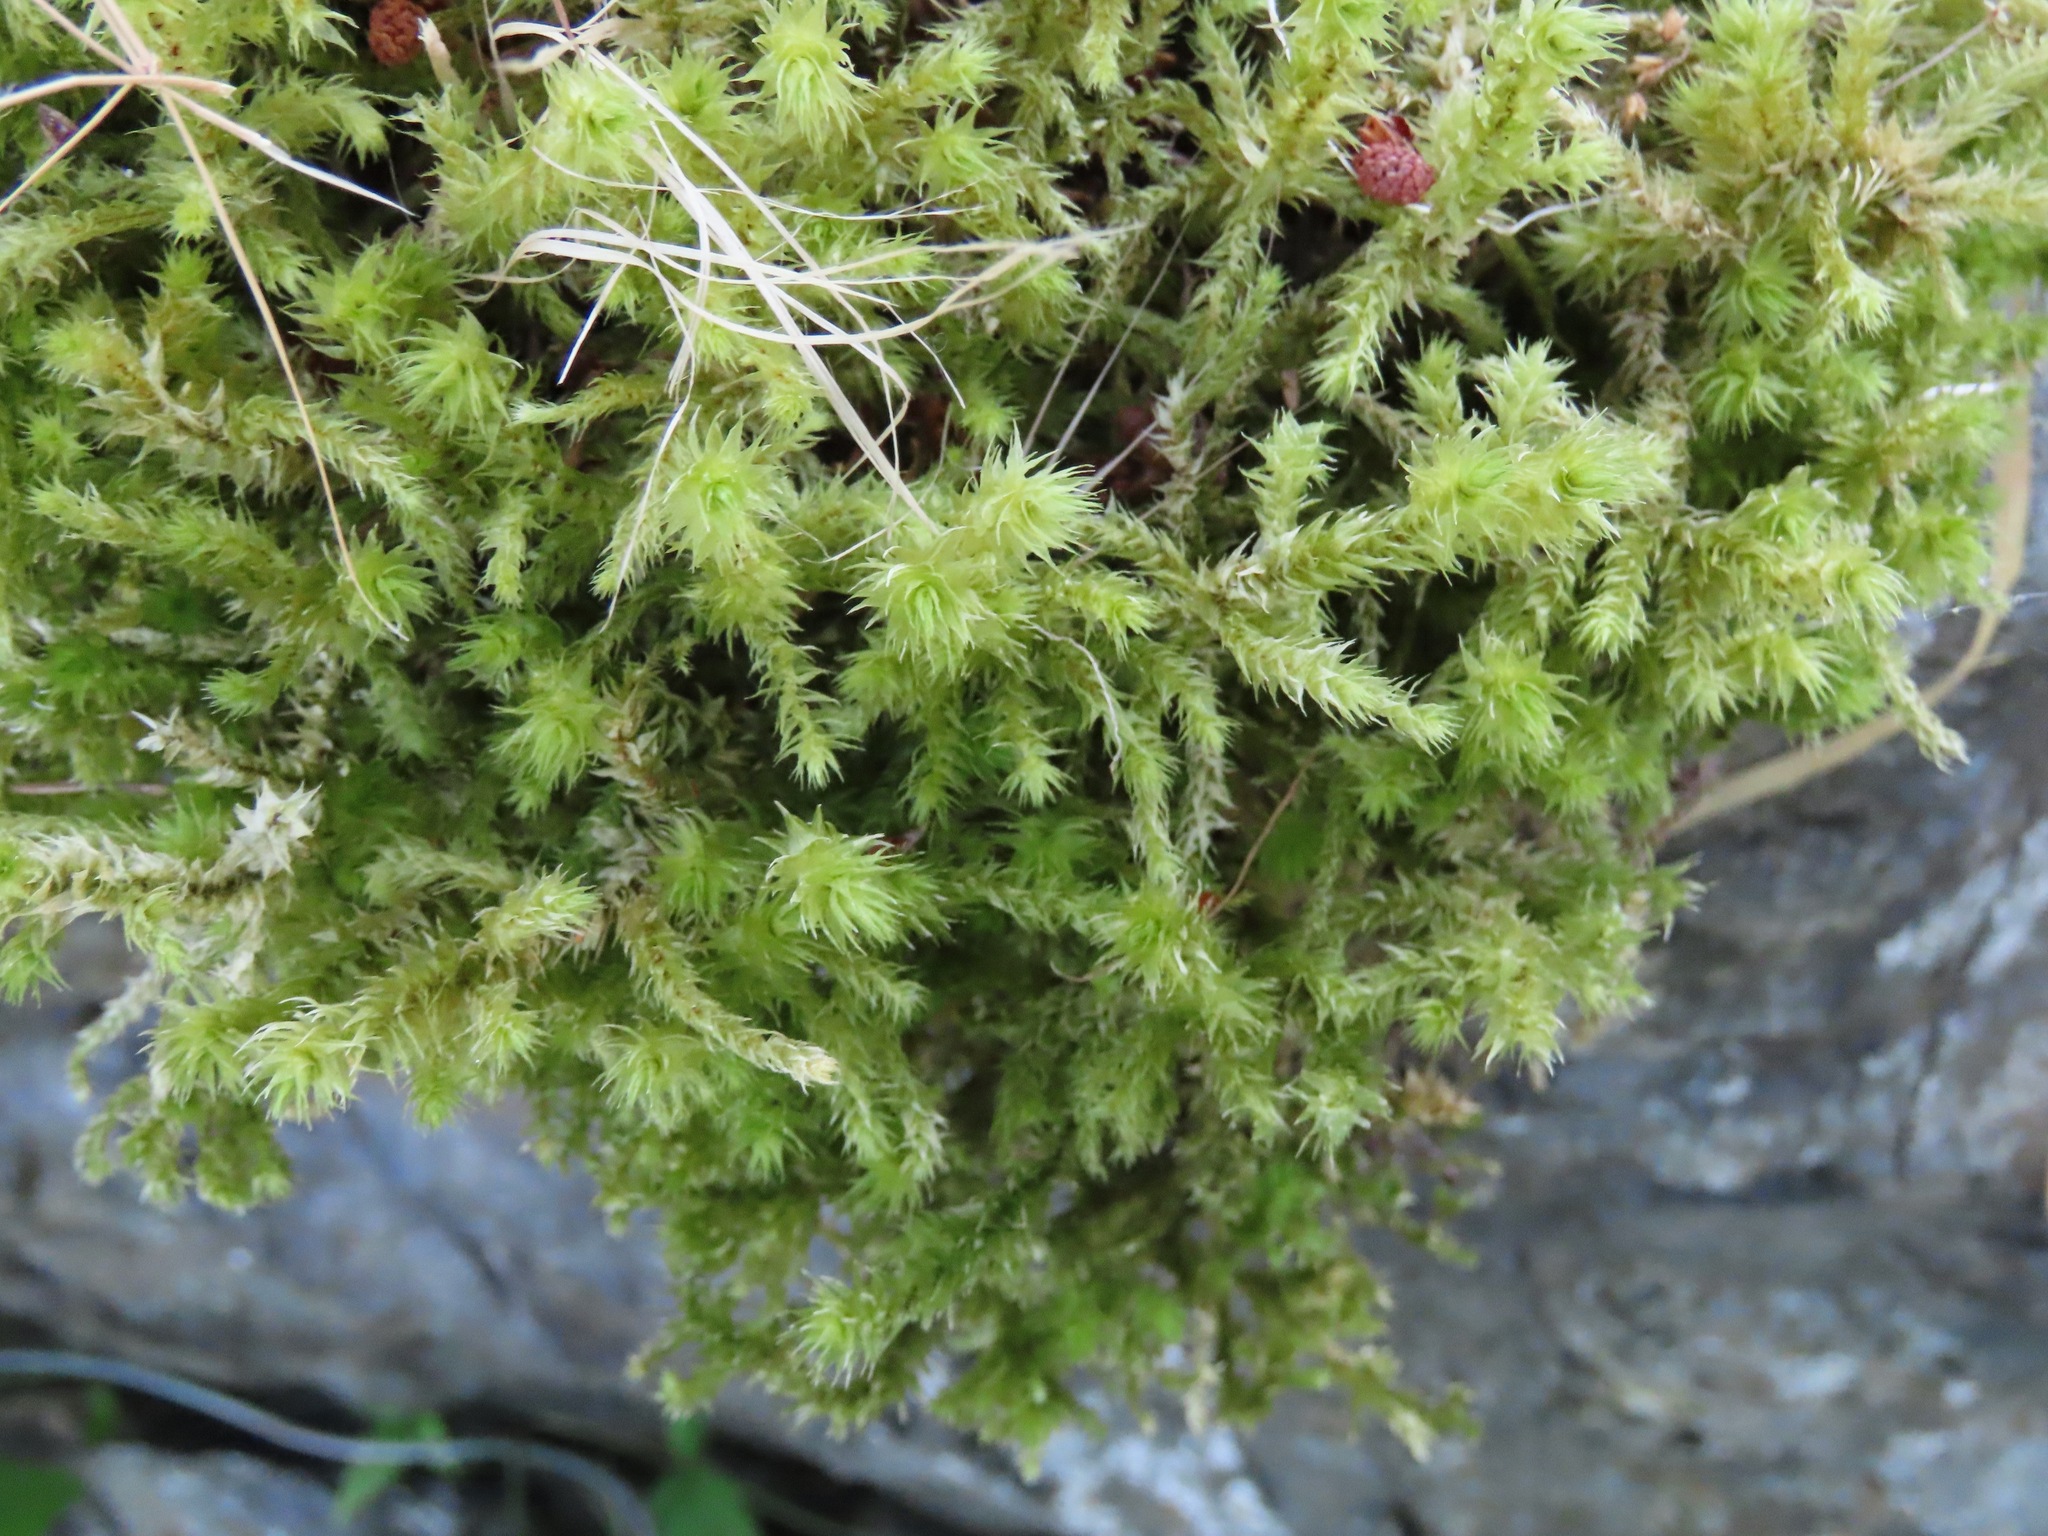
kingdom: Plantae
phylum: Bryophyta
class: Bryopsida
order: Hypnales
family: Hylocomiaceae
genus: Hylocomiadelphus
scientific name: Hylocomiadelphus triquetrus
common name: Rough goose neck moss
